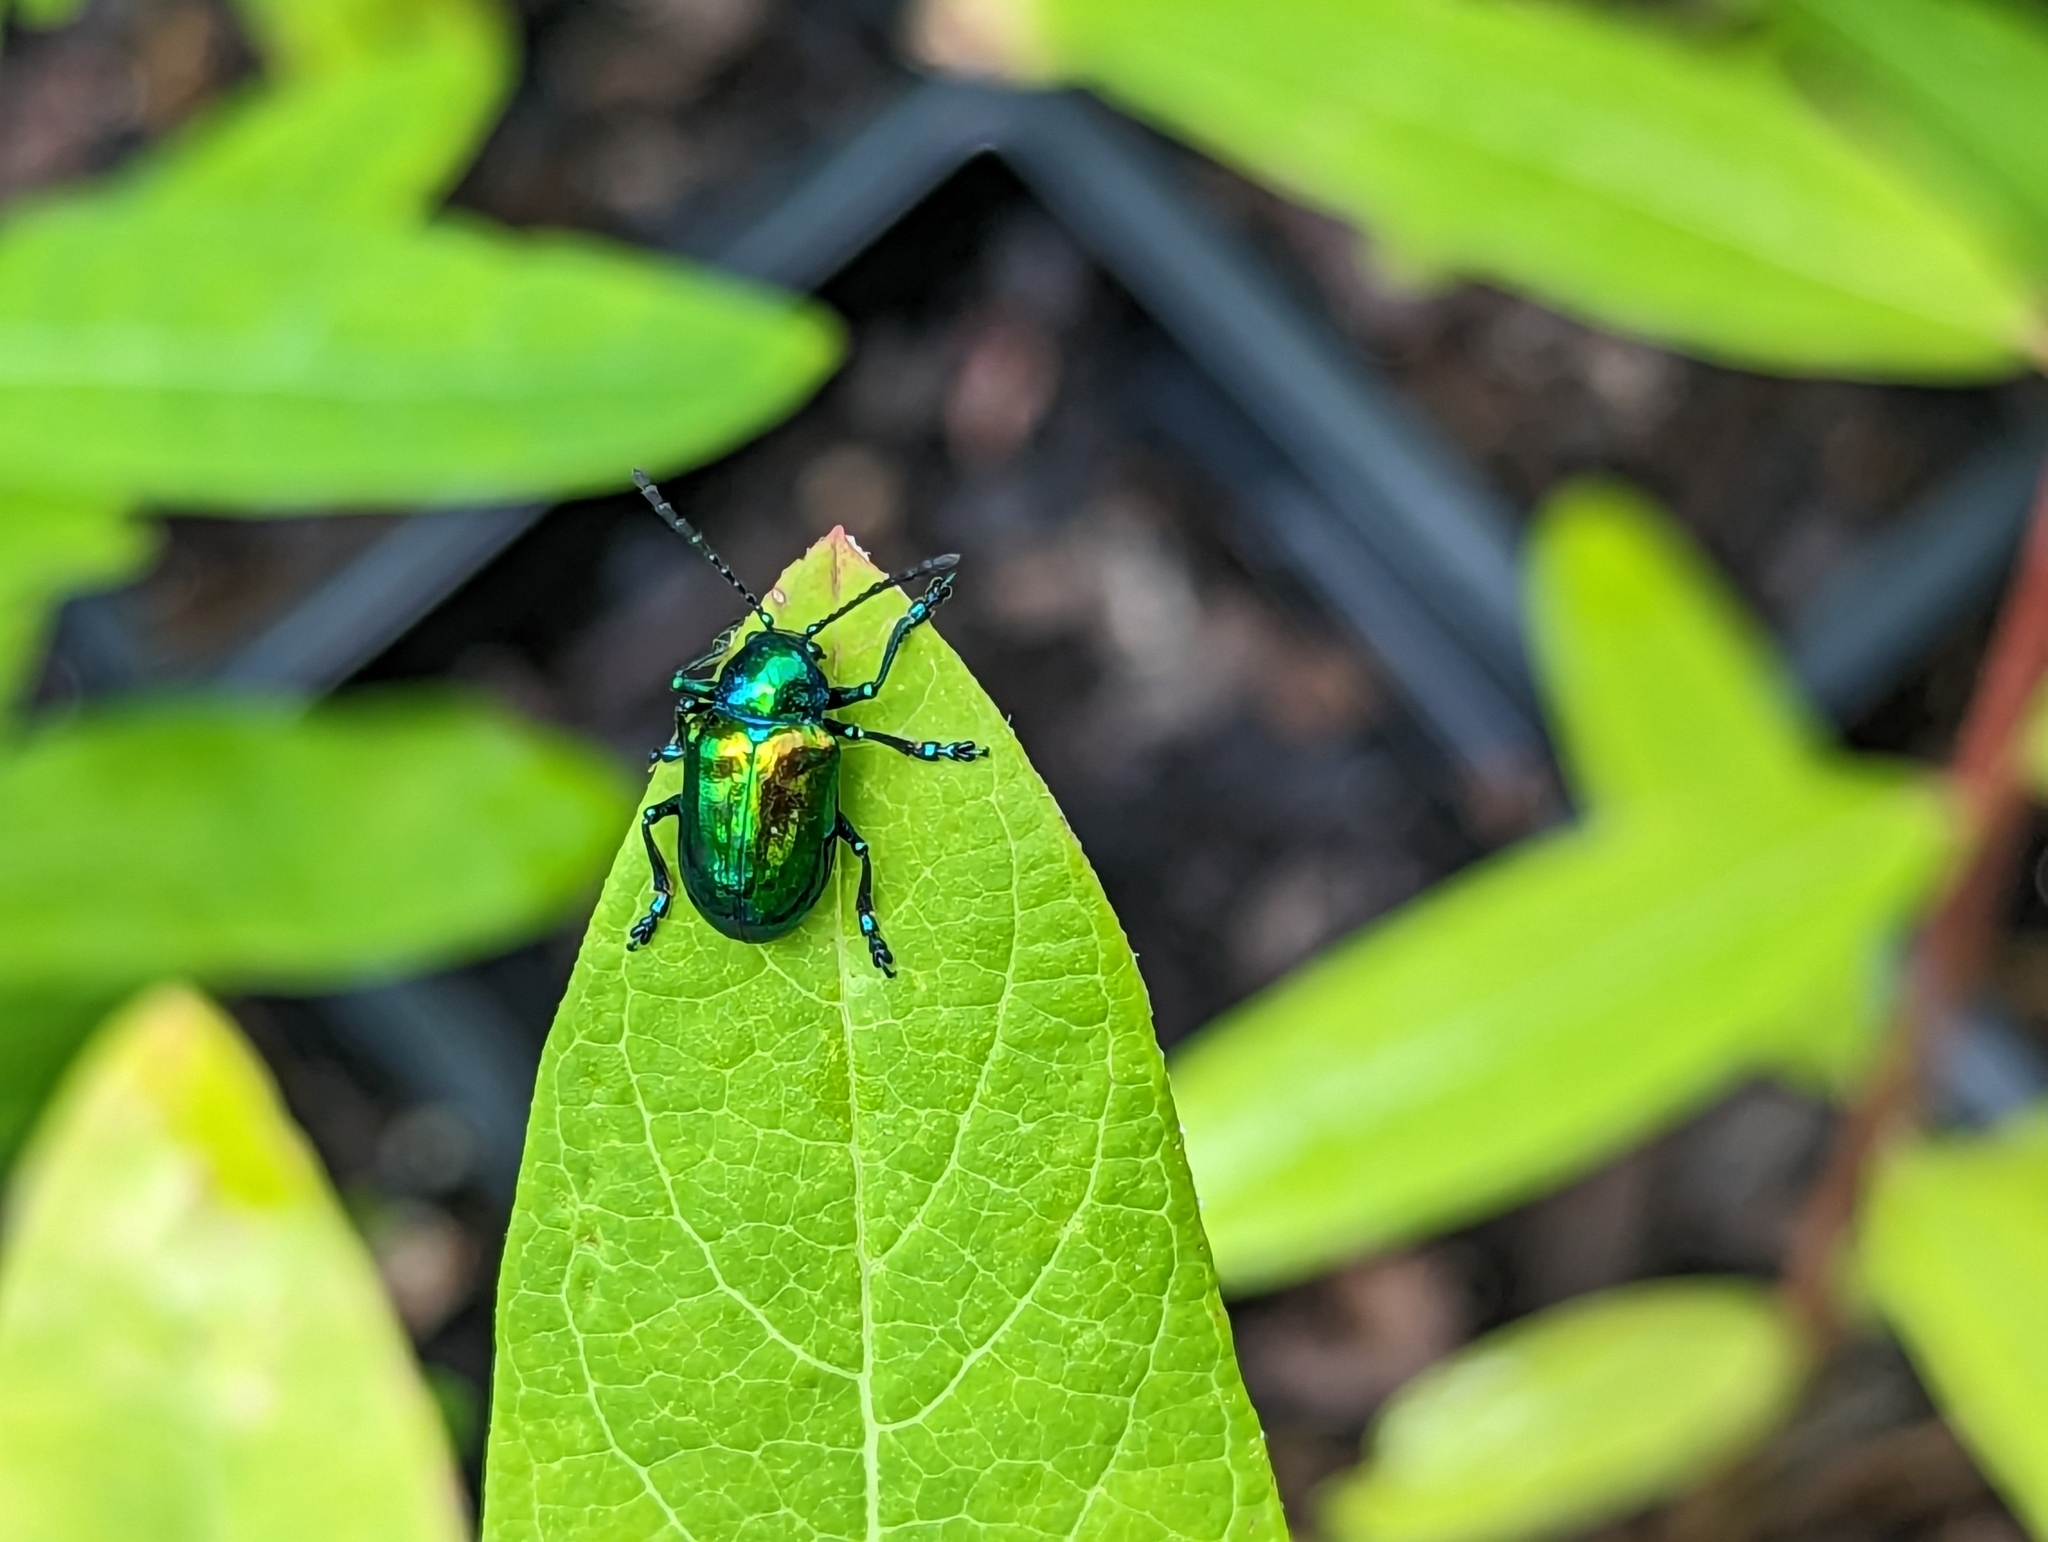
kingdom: Animalia
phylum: Arthropoda
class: Insecta
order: Coleoptera
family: Chrysomelidae
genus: Chrysochus
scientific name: Chrysochus auratus
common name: Dogbane leaf beetle
